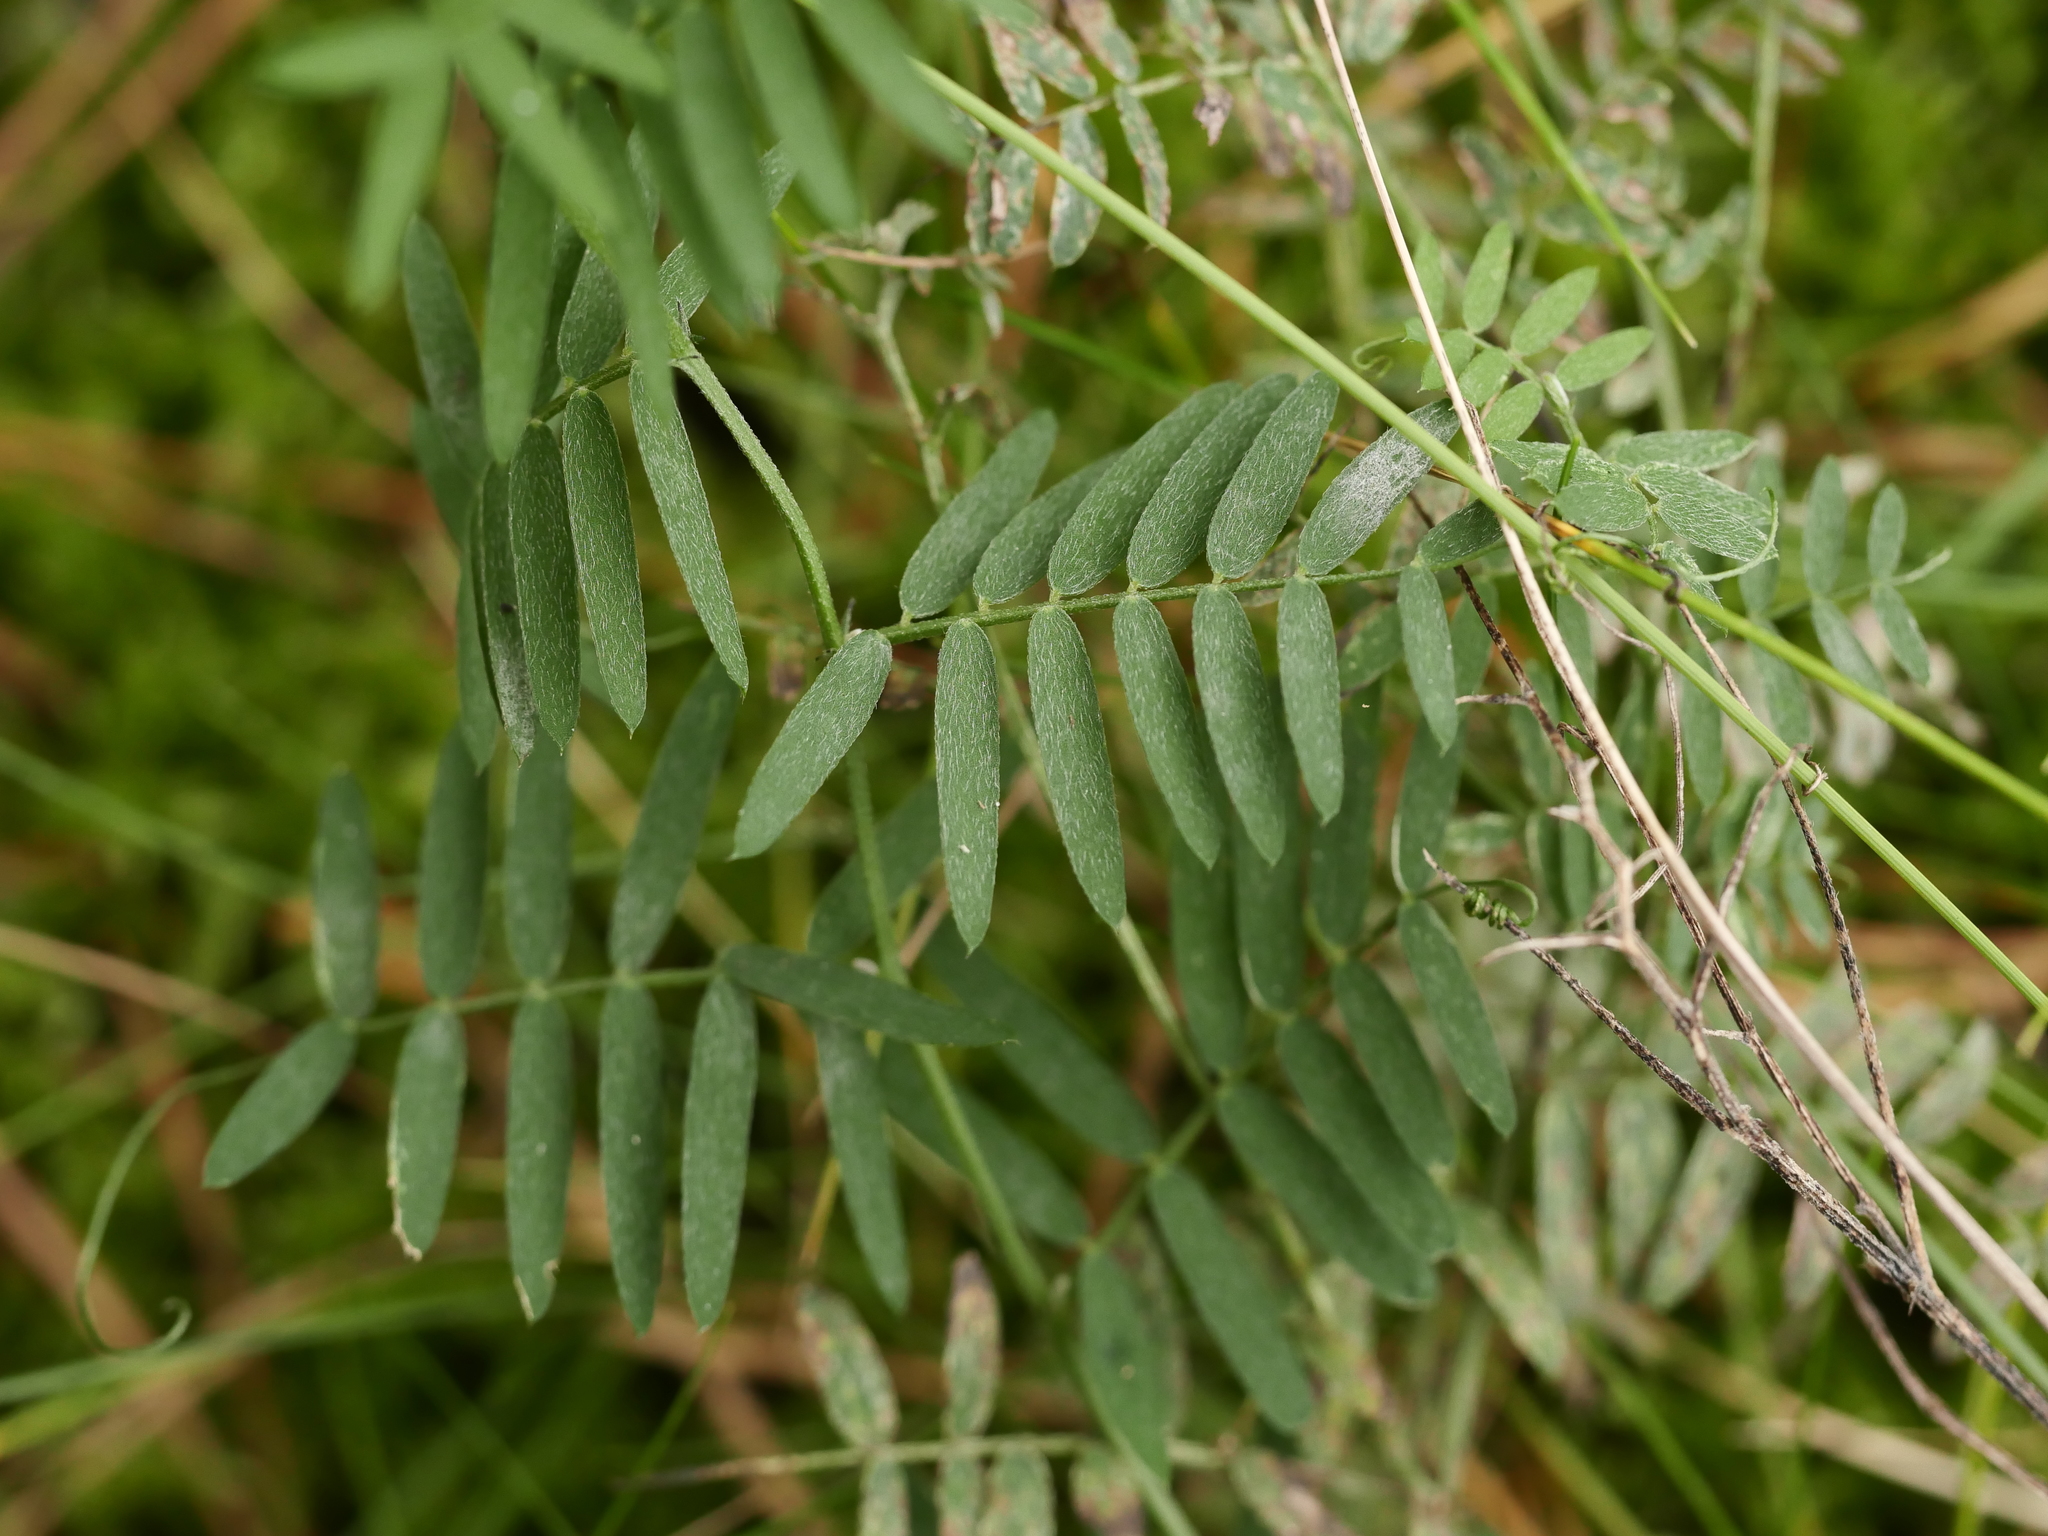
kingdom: Plantae
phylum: Tracheophyta
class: Magnoliopsida
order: Fabales
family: Fabaceae
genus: Vicia
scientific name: Vicia cracca
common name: Bird vetch
